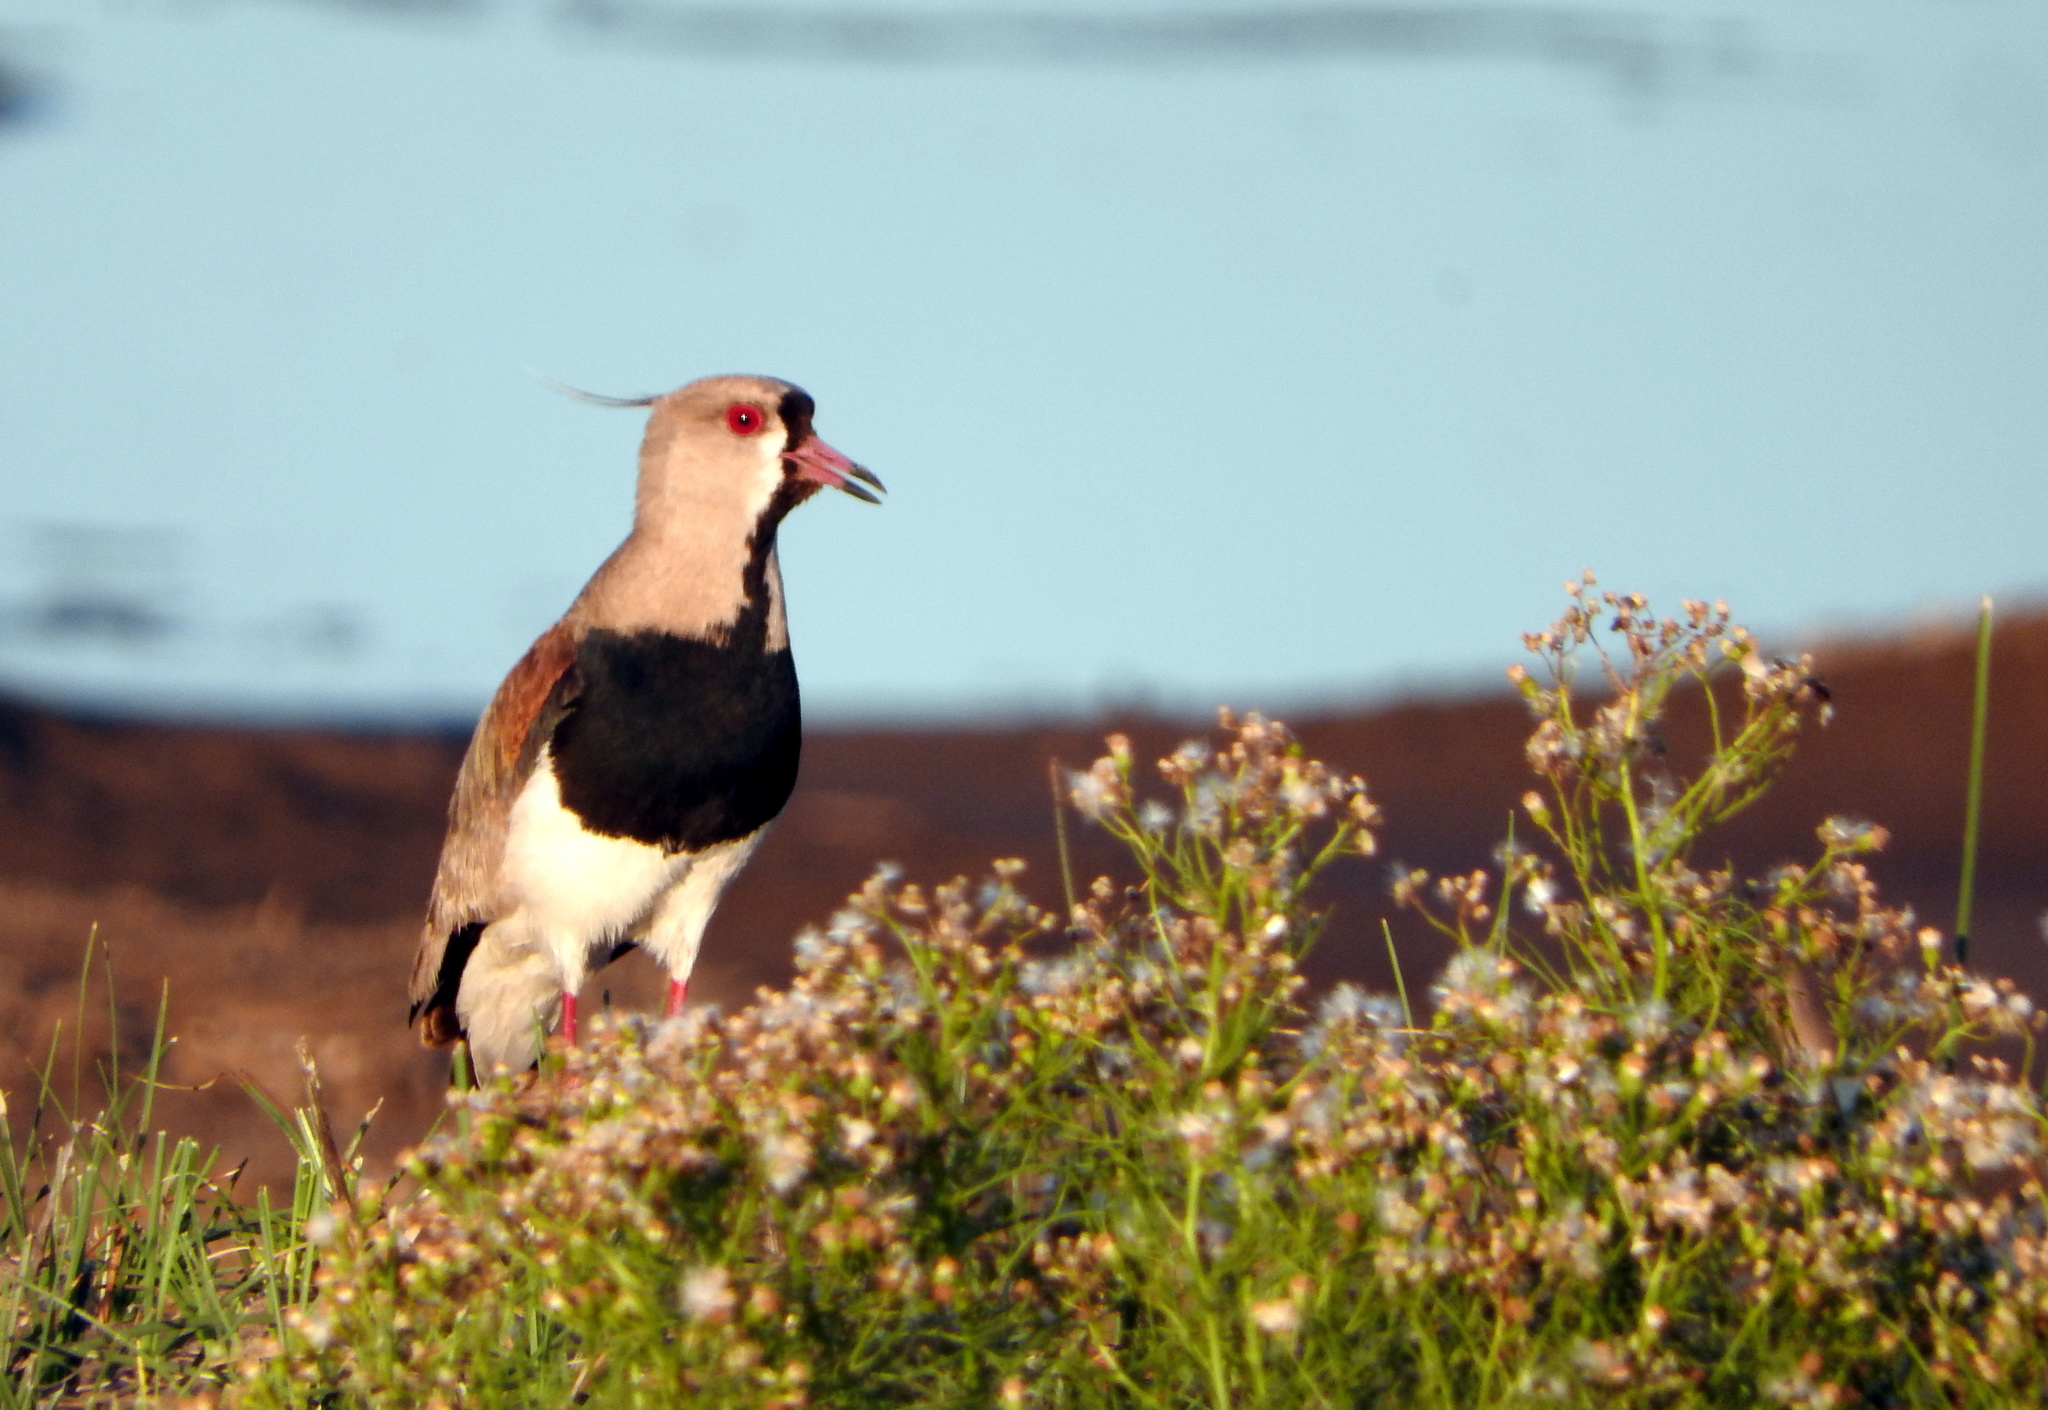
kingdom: Animalia
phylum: Chordata
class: Aves
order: Charadriiformes
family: Charadriidae
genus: Vanellus
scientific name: Vanellus chilensis
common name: Southern lapwing
